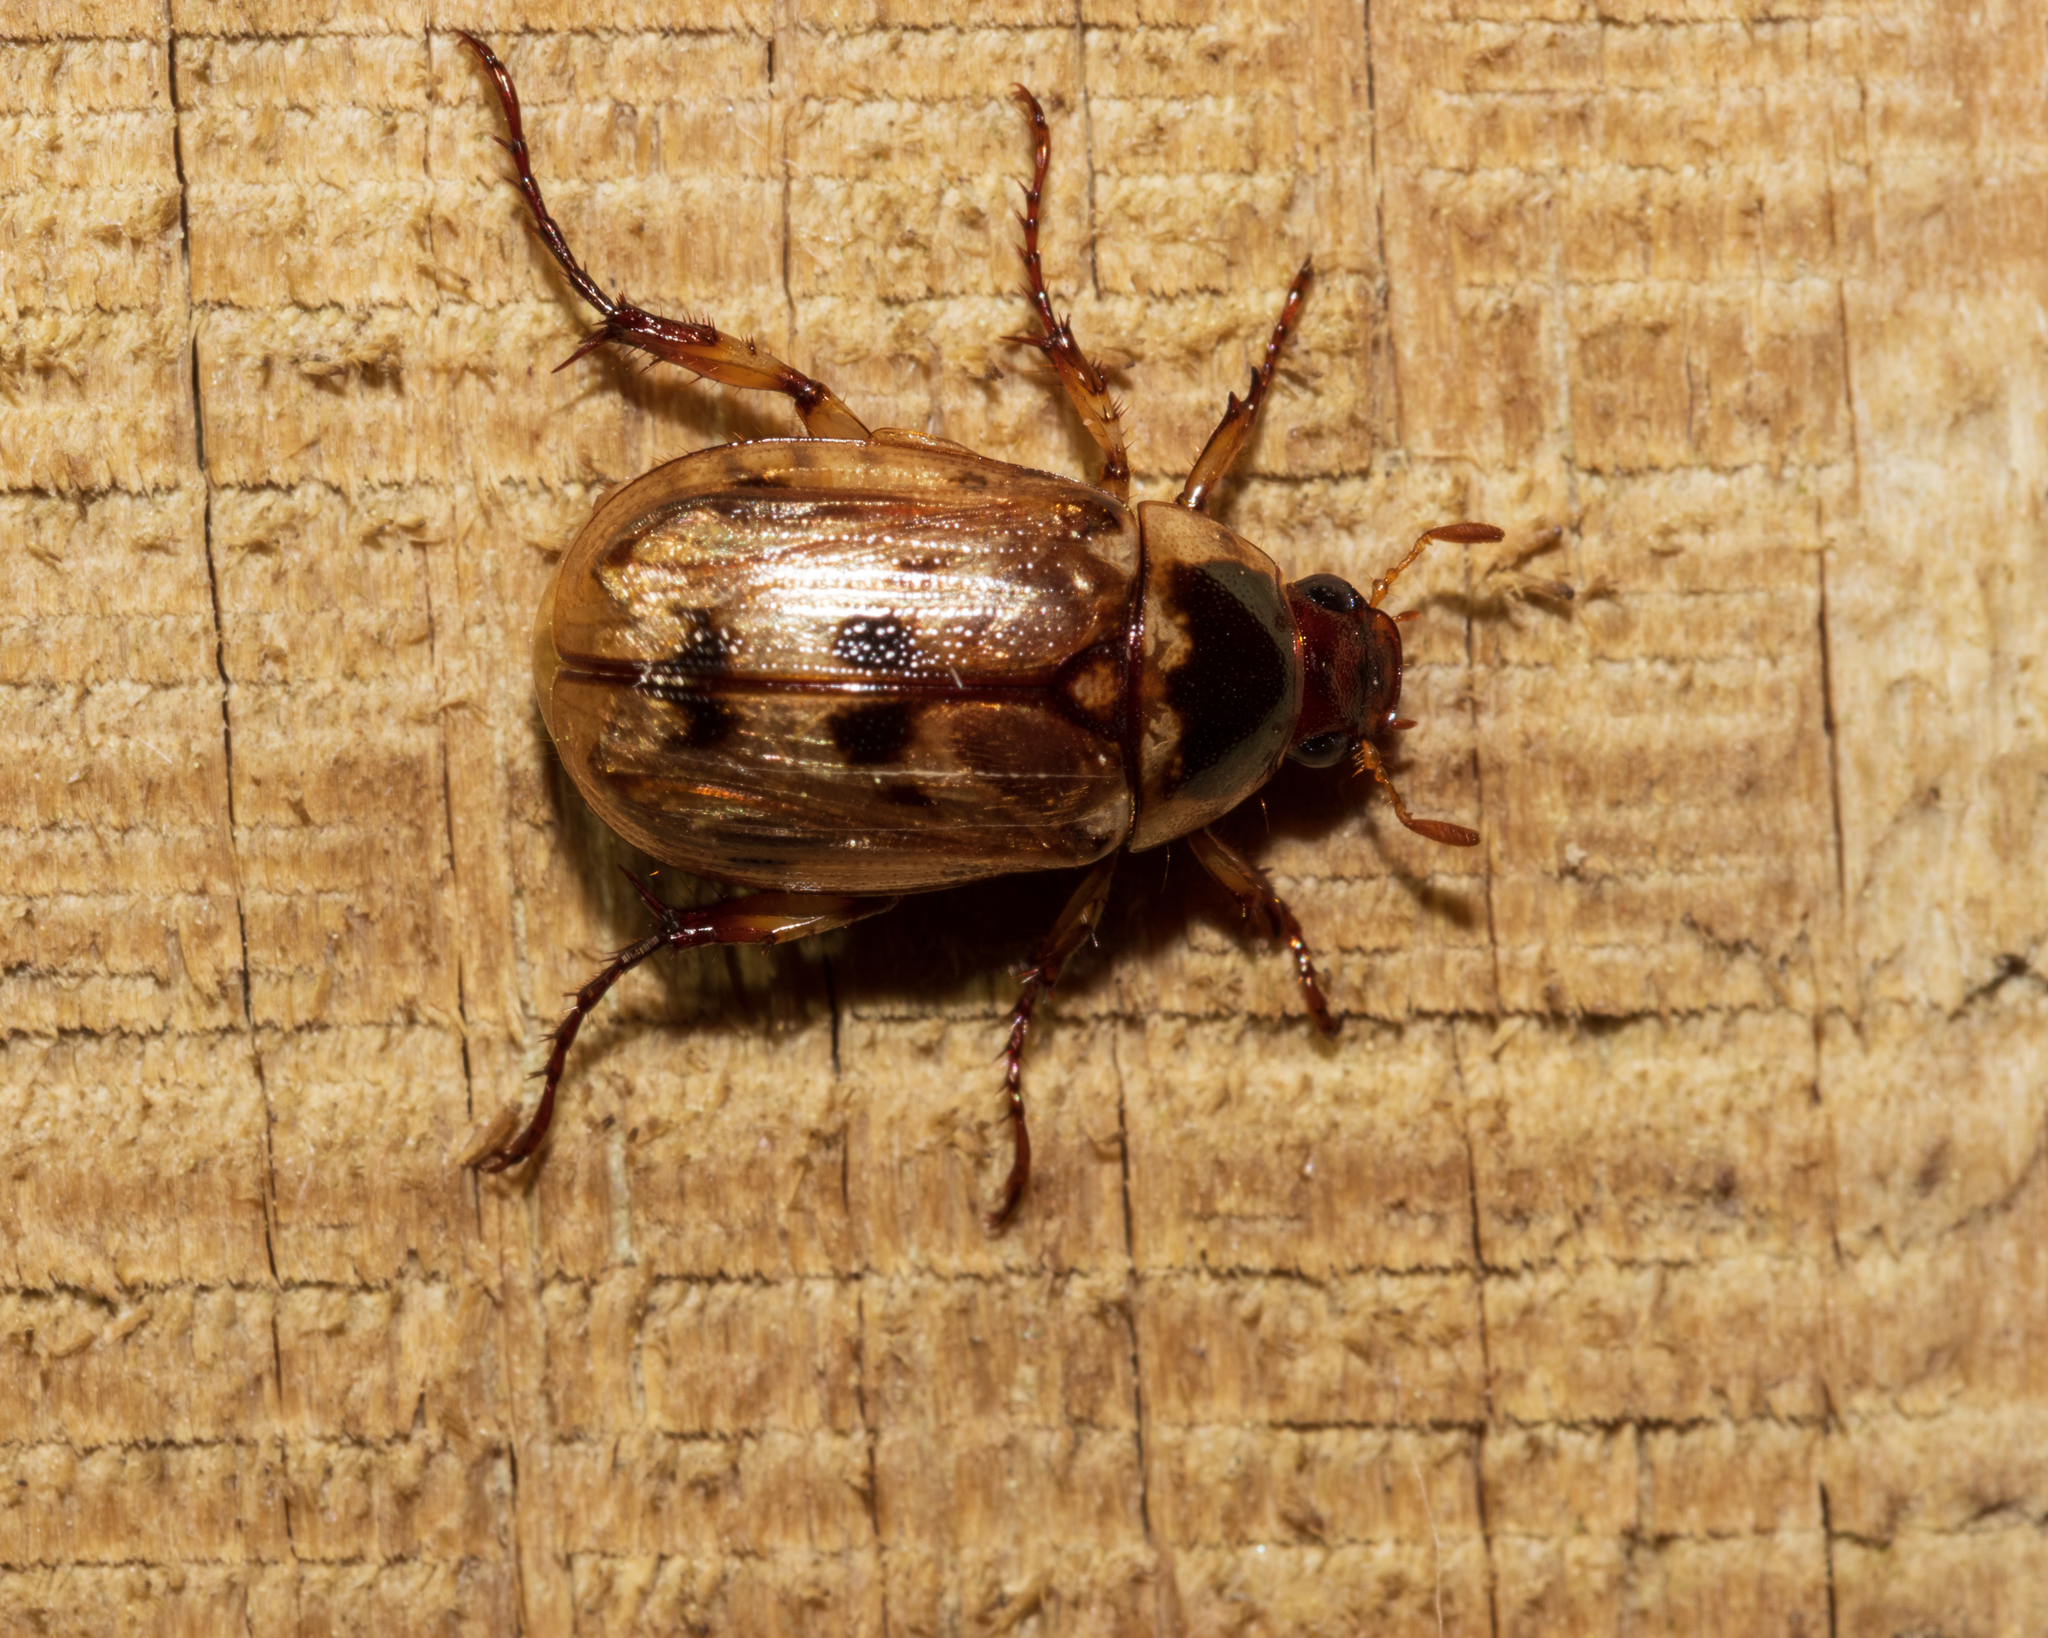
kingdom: Animalia
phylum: Arthropoda
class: Insecta
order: Coleoptera
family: Scarabaeidae
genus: Exomala
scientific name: Exomala orientalis
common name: Oriental beetle
